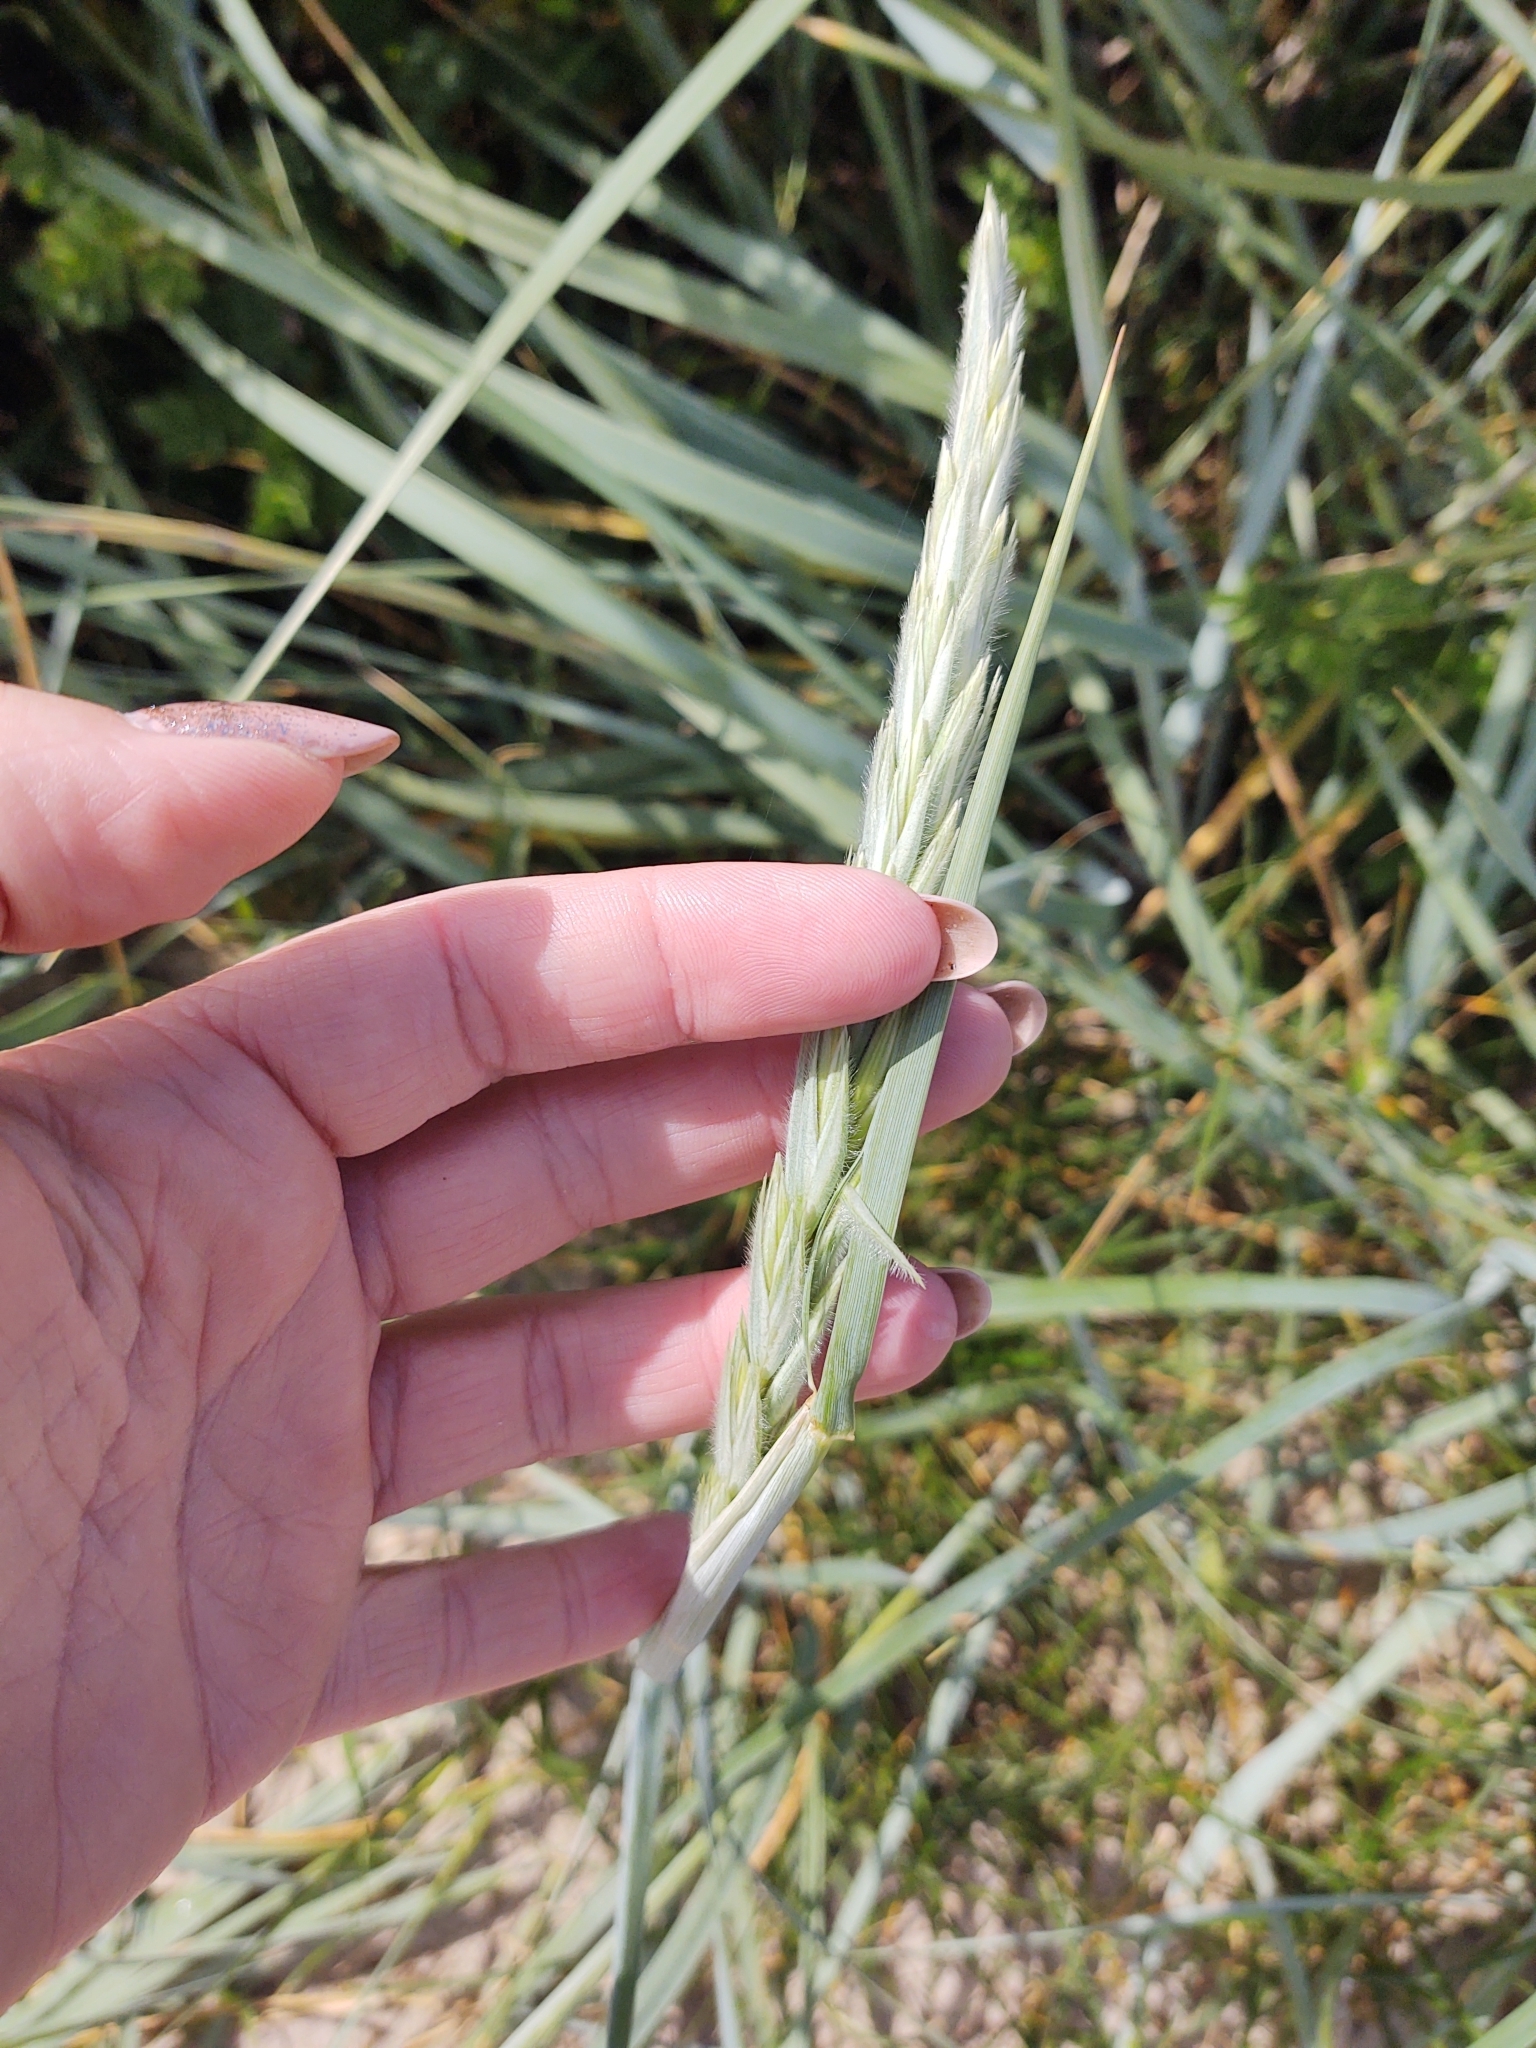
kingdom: Plantae
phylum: Tracheophyta
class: Liliopsida
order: Poales
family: Poaceae
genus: Leymus
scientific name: Leymus arenarius
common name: Lyme-grass
